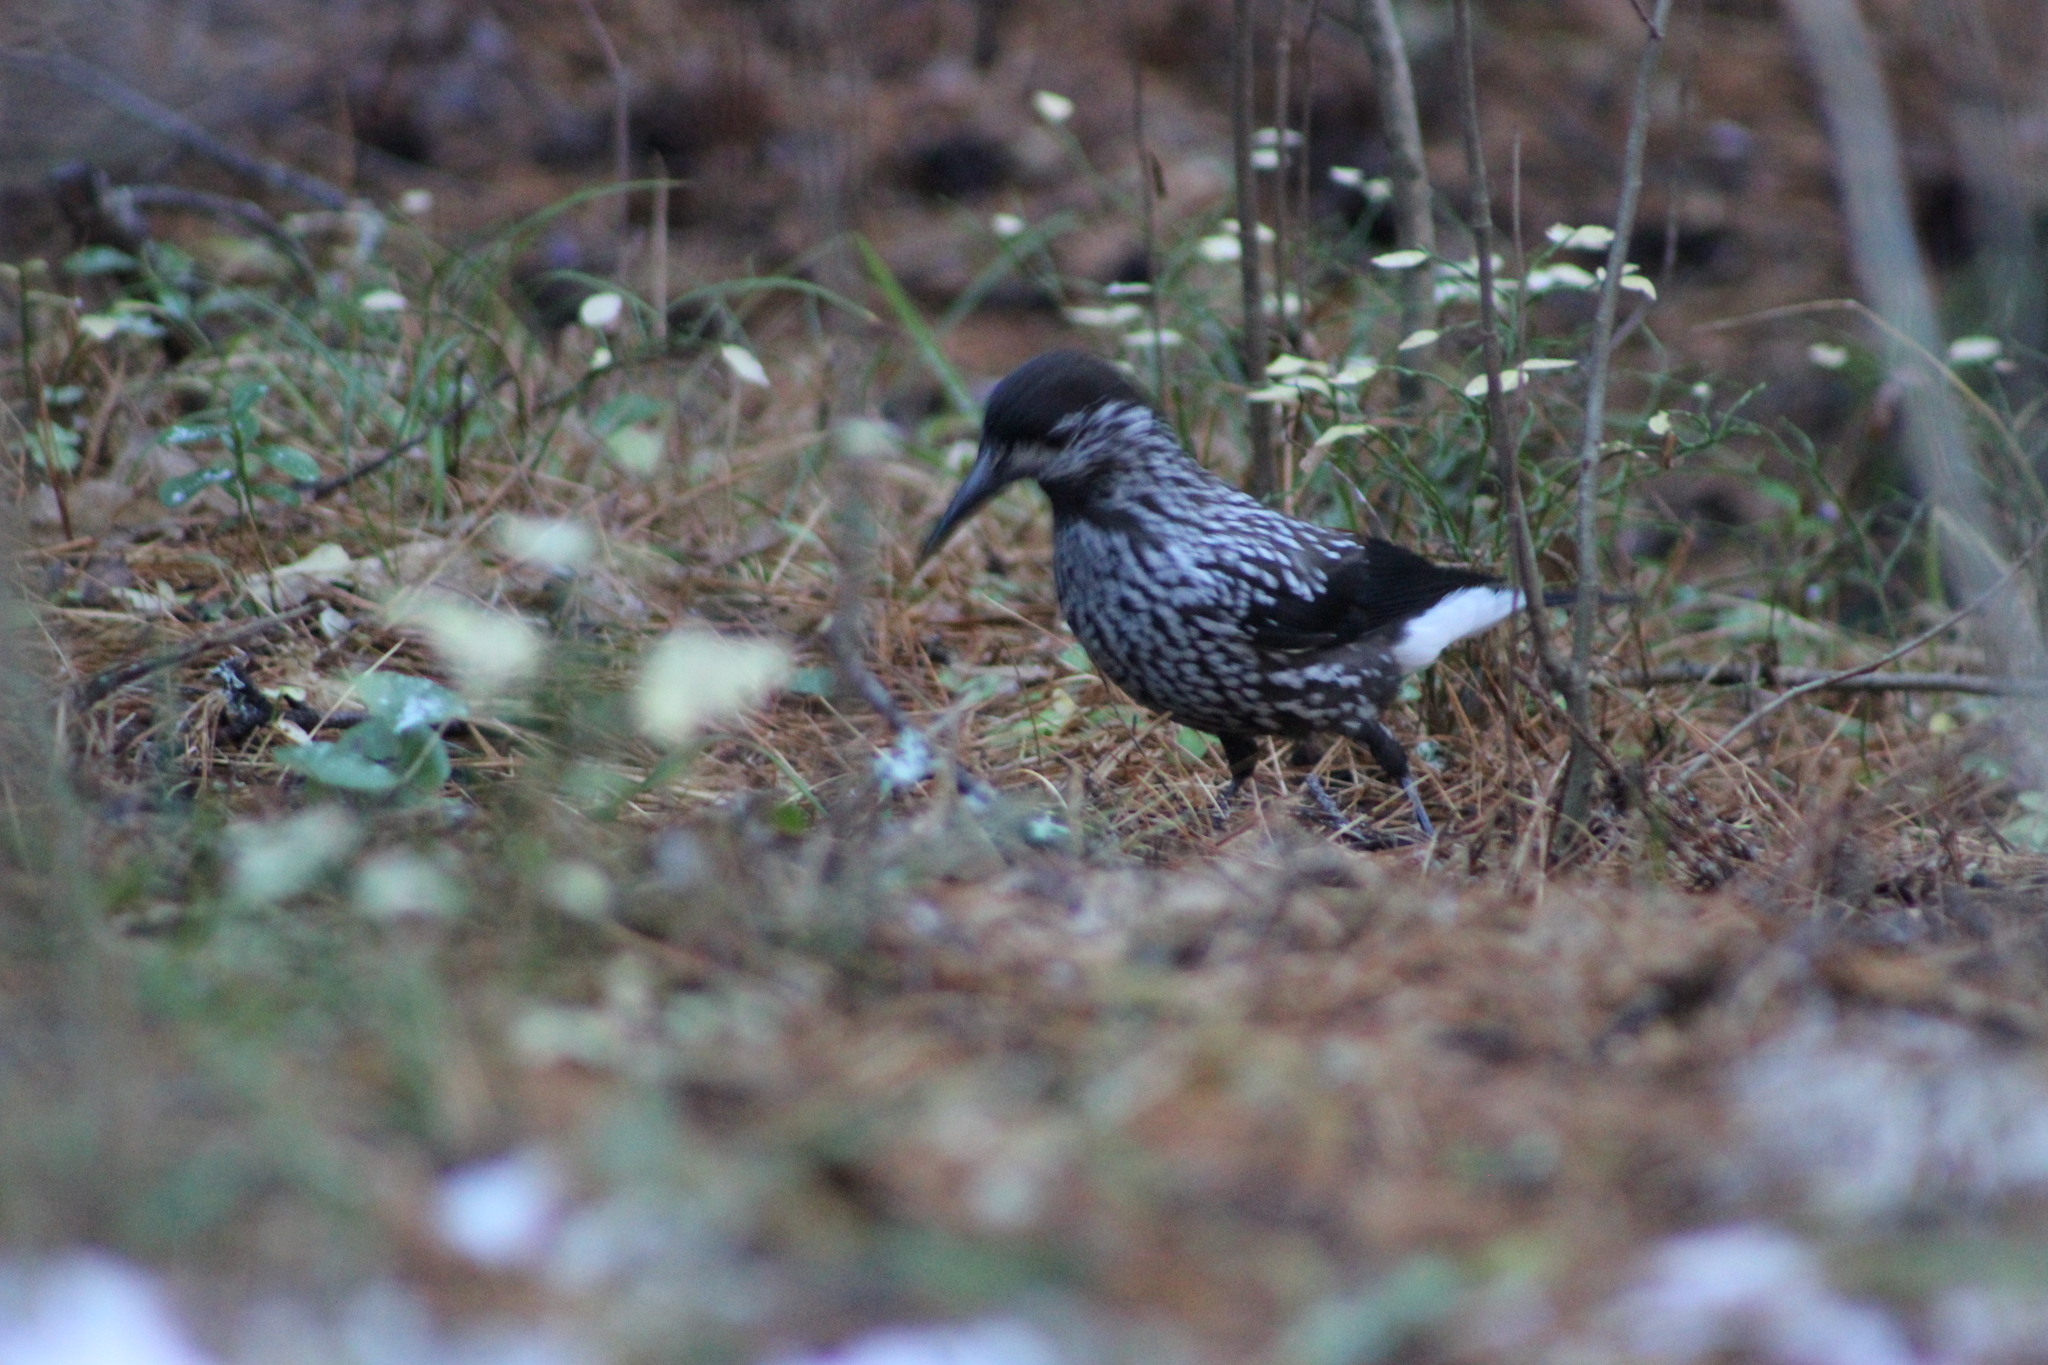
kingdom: Animalia
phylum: Chordata
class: Aves
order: Passeriformes
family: Corvidae
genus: Nucifraga
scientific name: Nucifraga caryocatactes
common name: Spotted nutcracker
